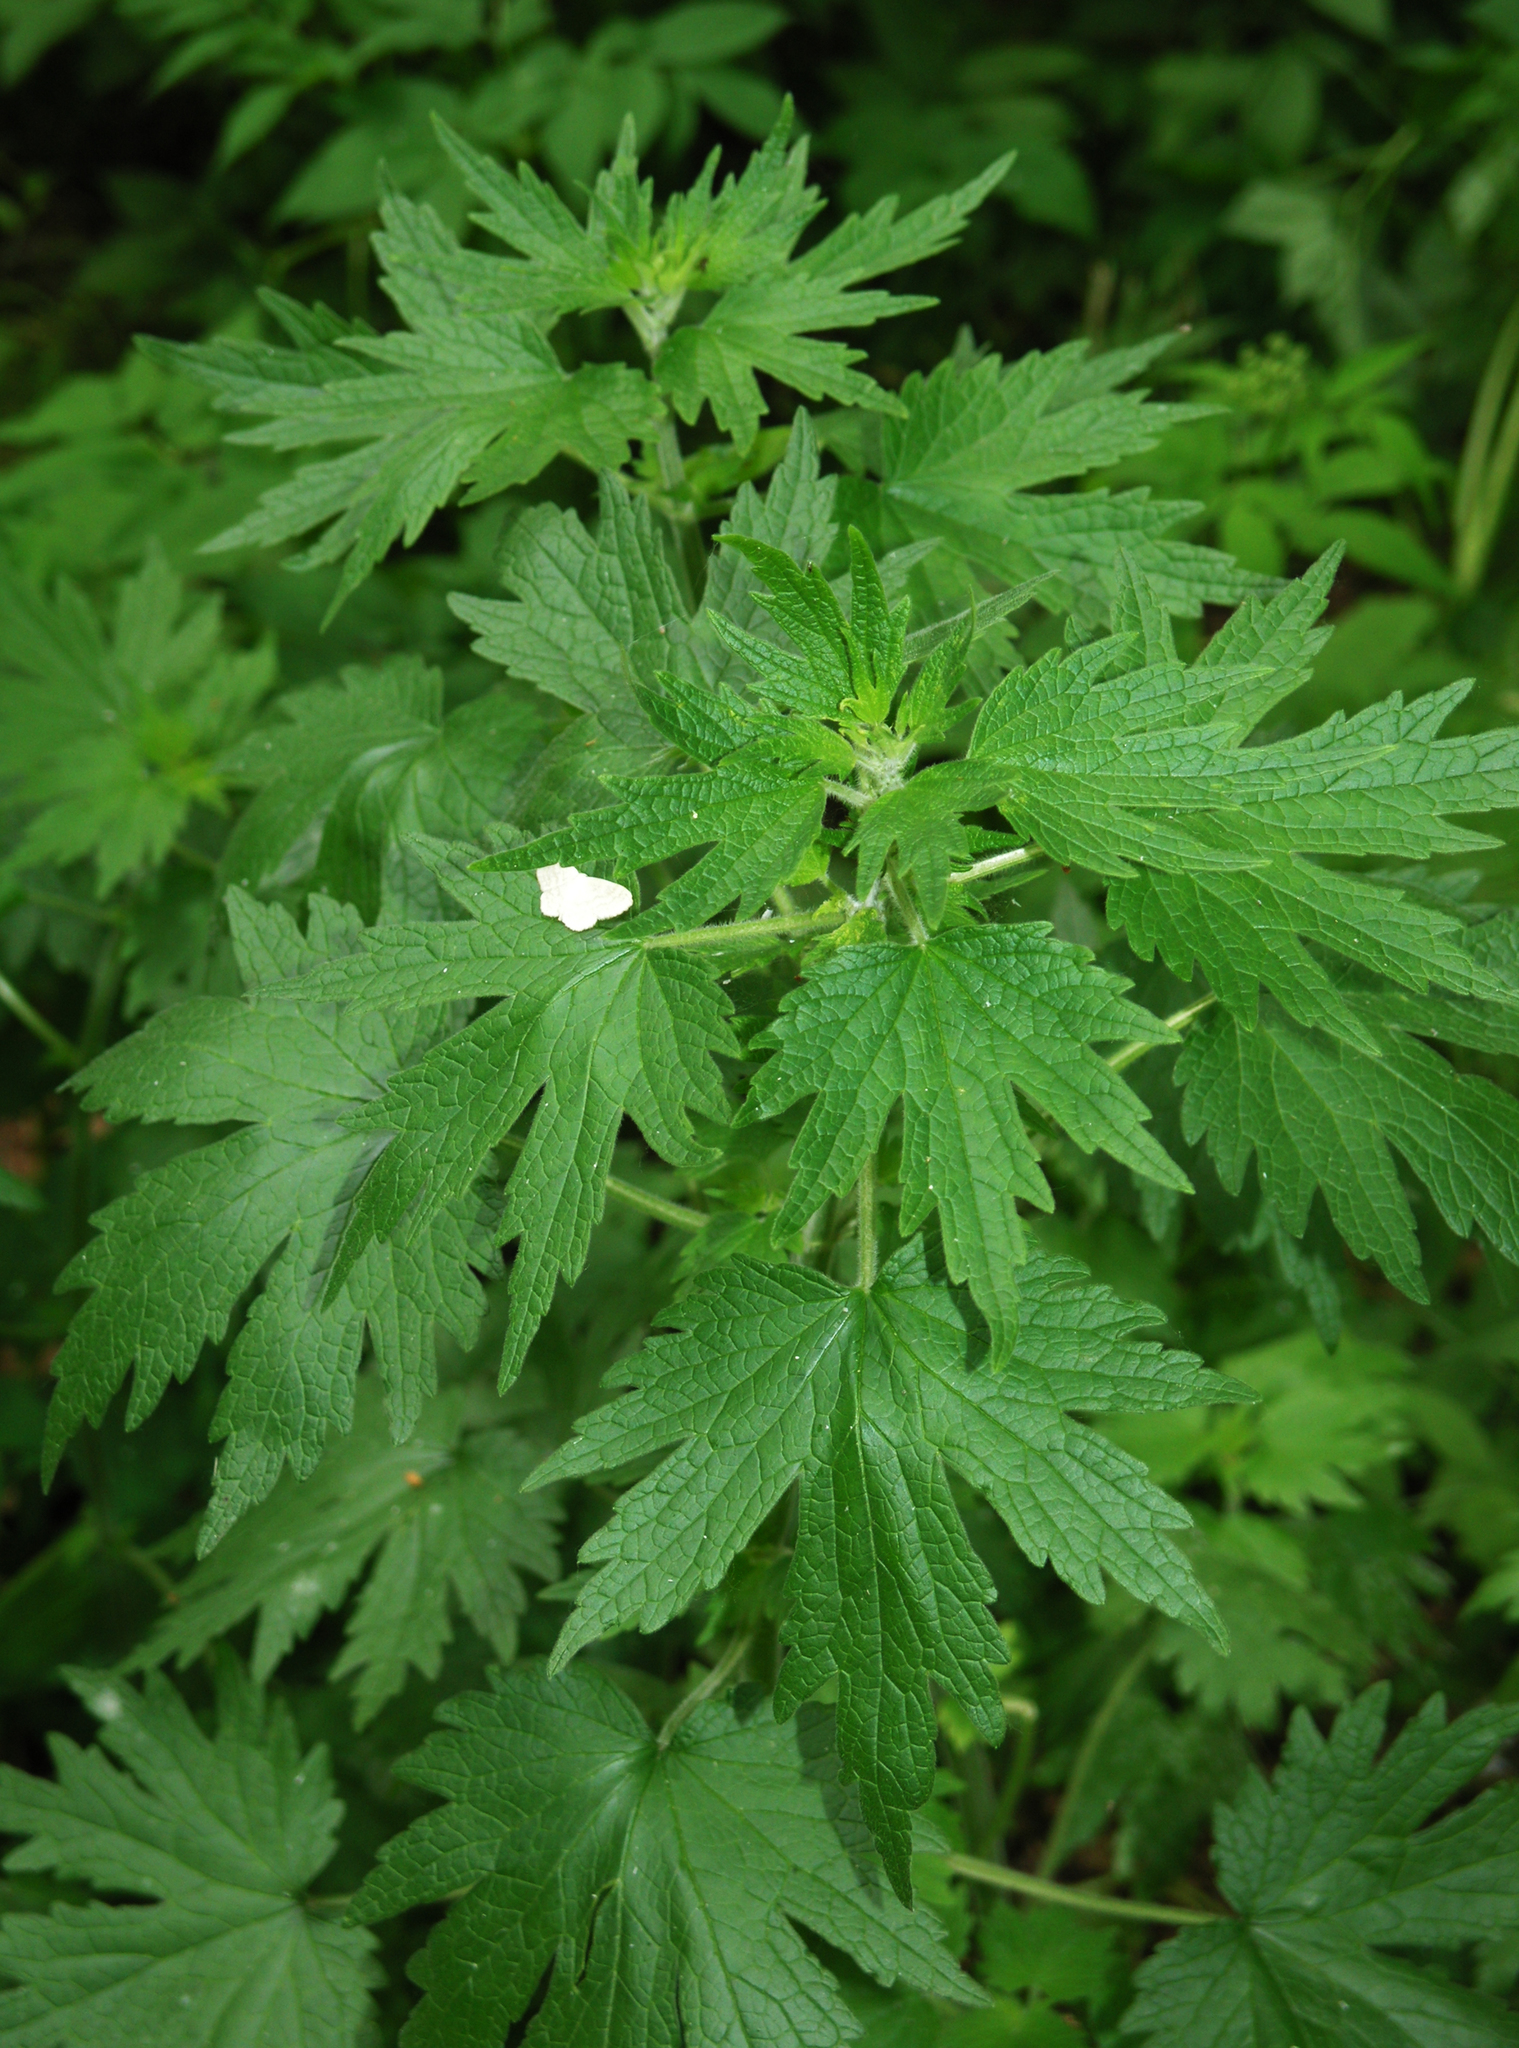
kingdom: Plantae
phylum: Tracheophyta
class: Magnoliopsida
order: Lamiales
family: Lamiaceae
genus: Leonurus
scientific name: Leonurus quinquelobatus
